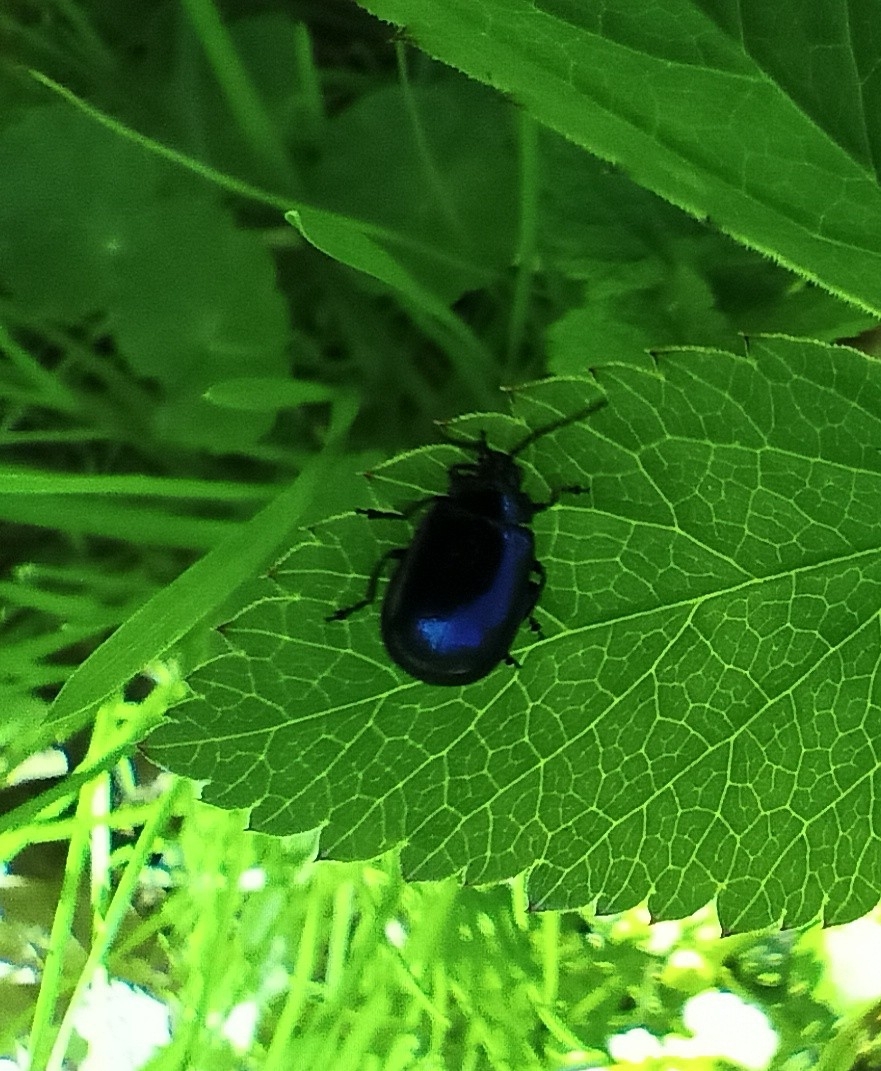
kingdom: Animalia
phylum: Arthropoda
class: Insecta
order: Coleoptera
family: Chrysomelidae
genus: Agelastica
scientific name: Agelastica alni
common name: Alder leaf beetle
